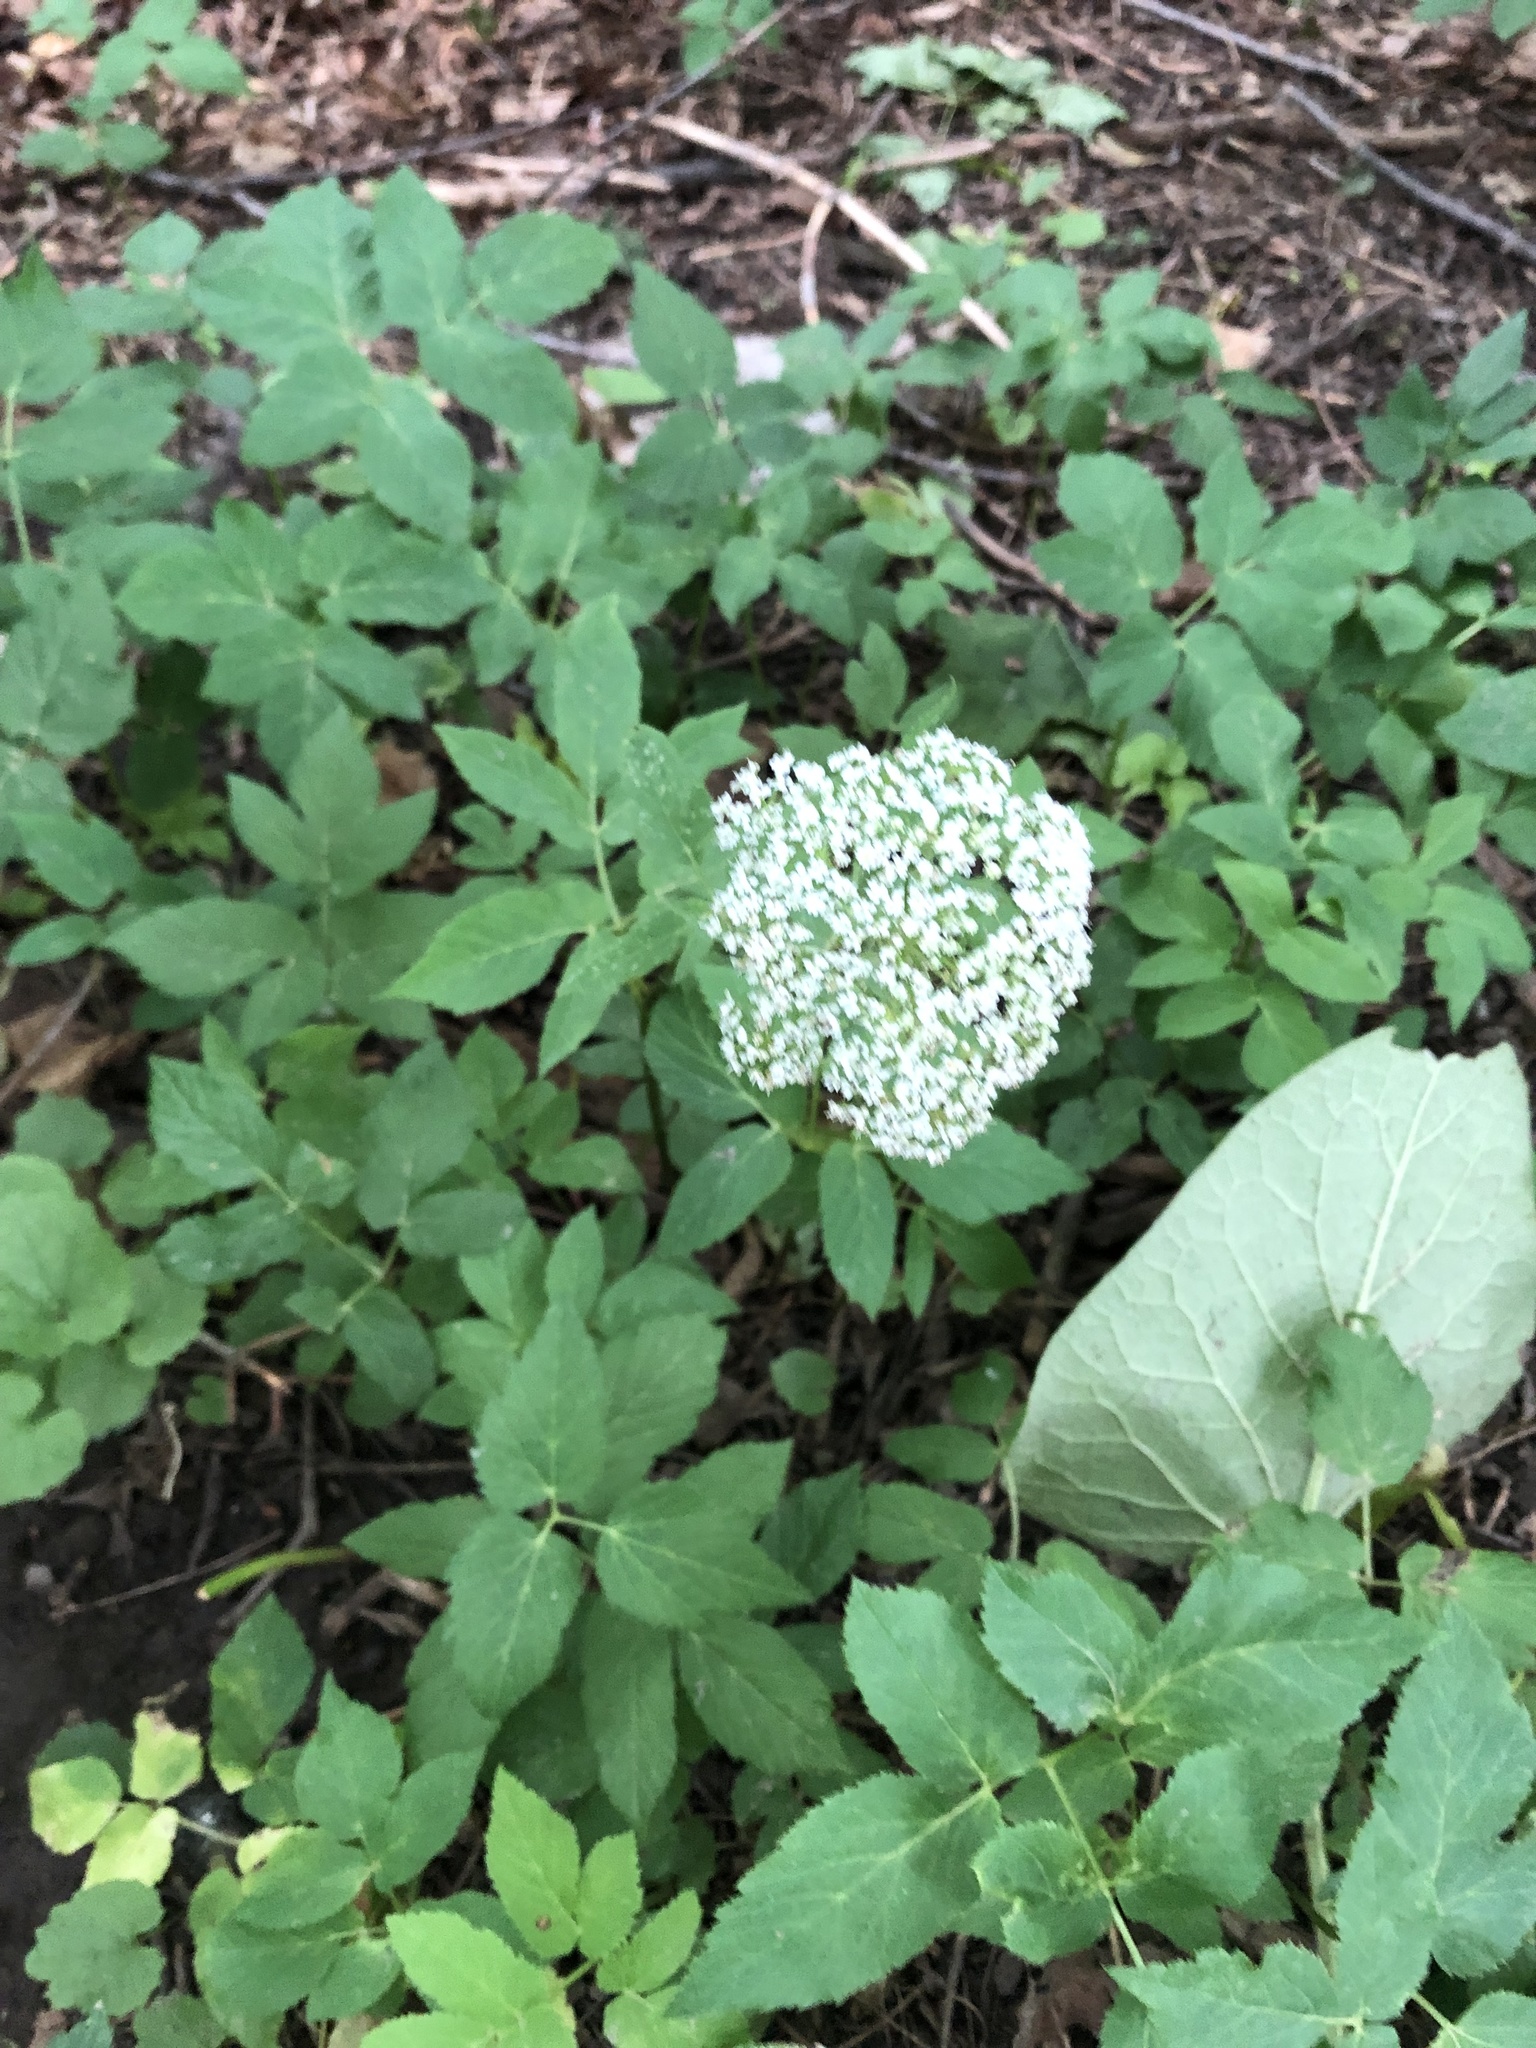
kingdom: Plantae
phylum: Tracheophyta
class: Magnoliopsida
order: Apiales
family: Apiaceae
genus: Aegopodium
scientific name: Aegopodium podagraria
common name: Ground-elder
